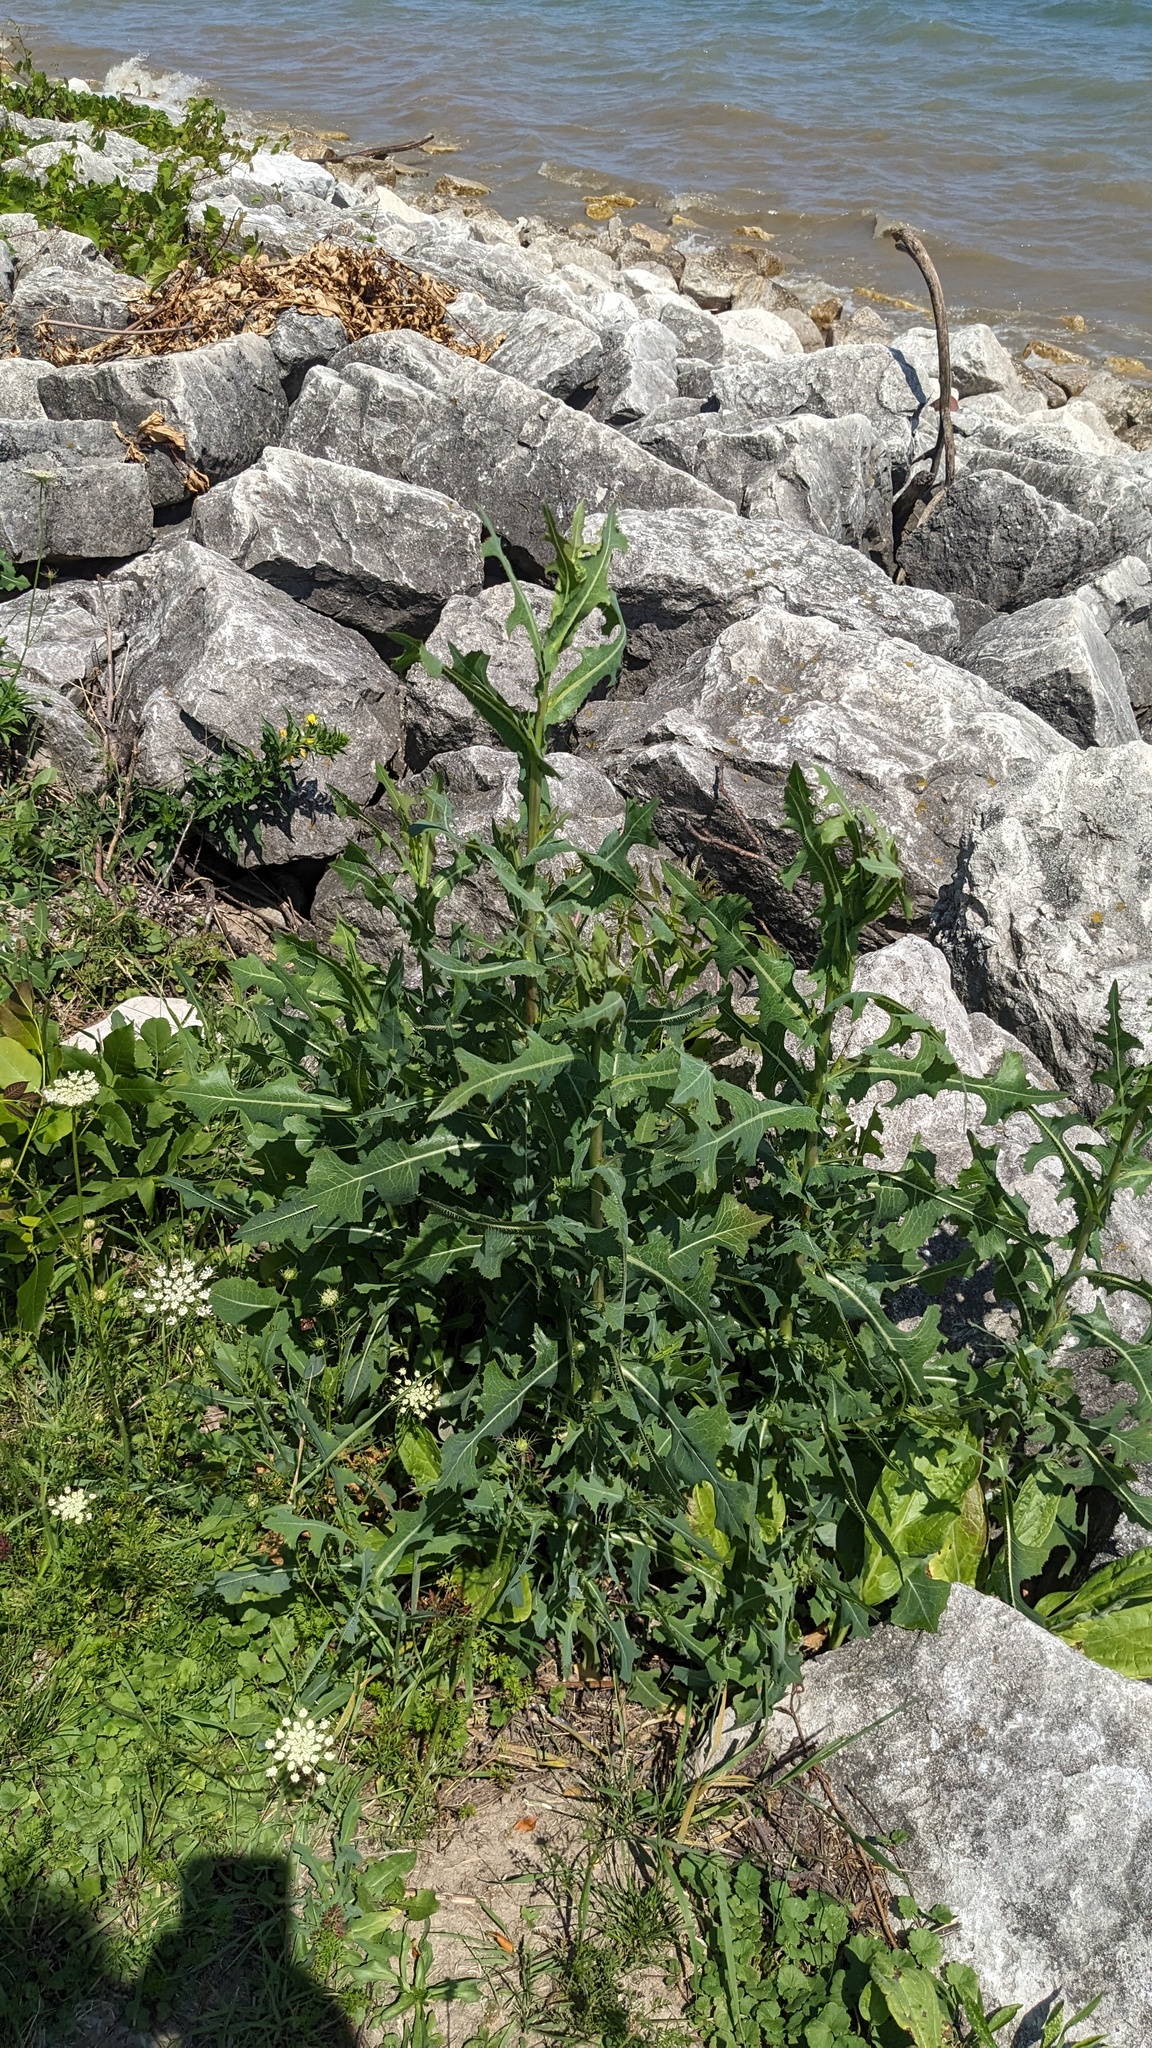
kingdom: Plantae
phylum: Tracheophyta
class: Magnoliopsida
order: Asterales
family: Asteraceae
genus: Lactuca
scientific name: Lactuca serriola
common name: Prickly lettuce
